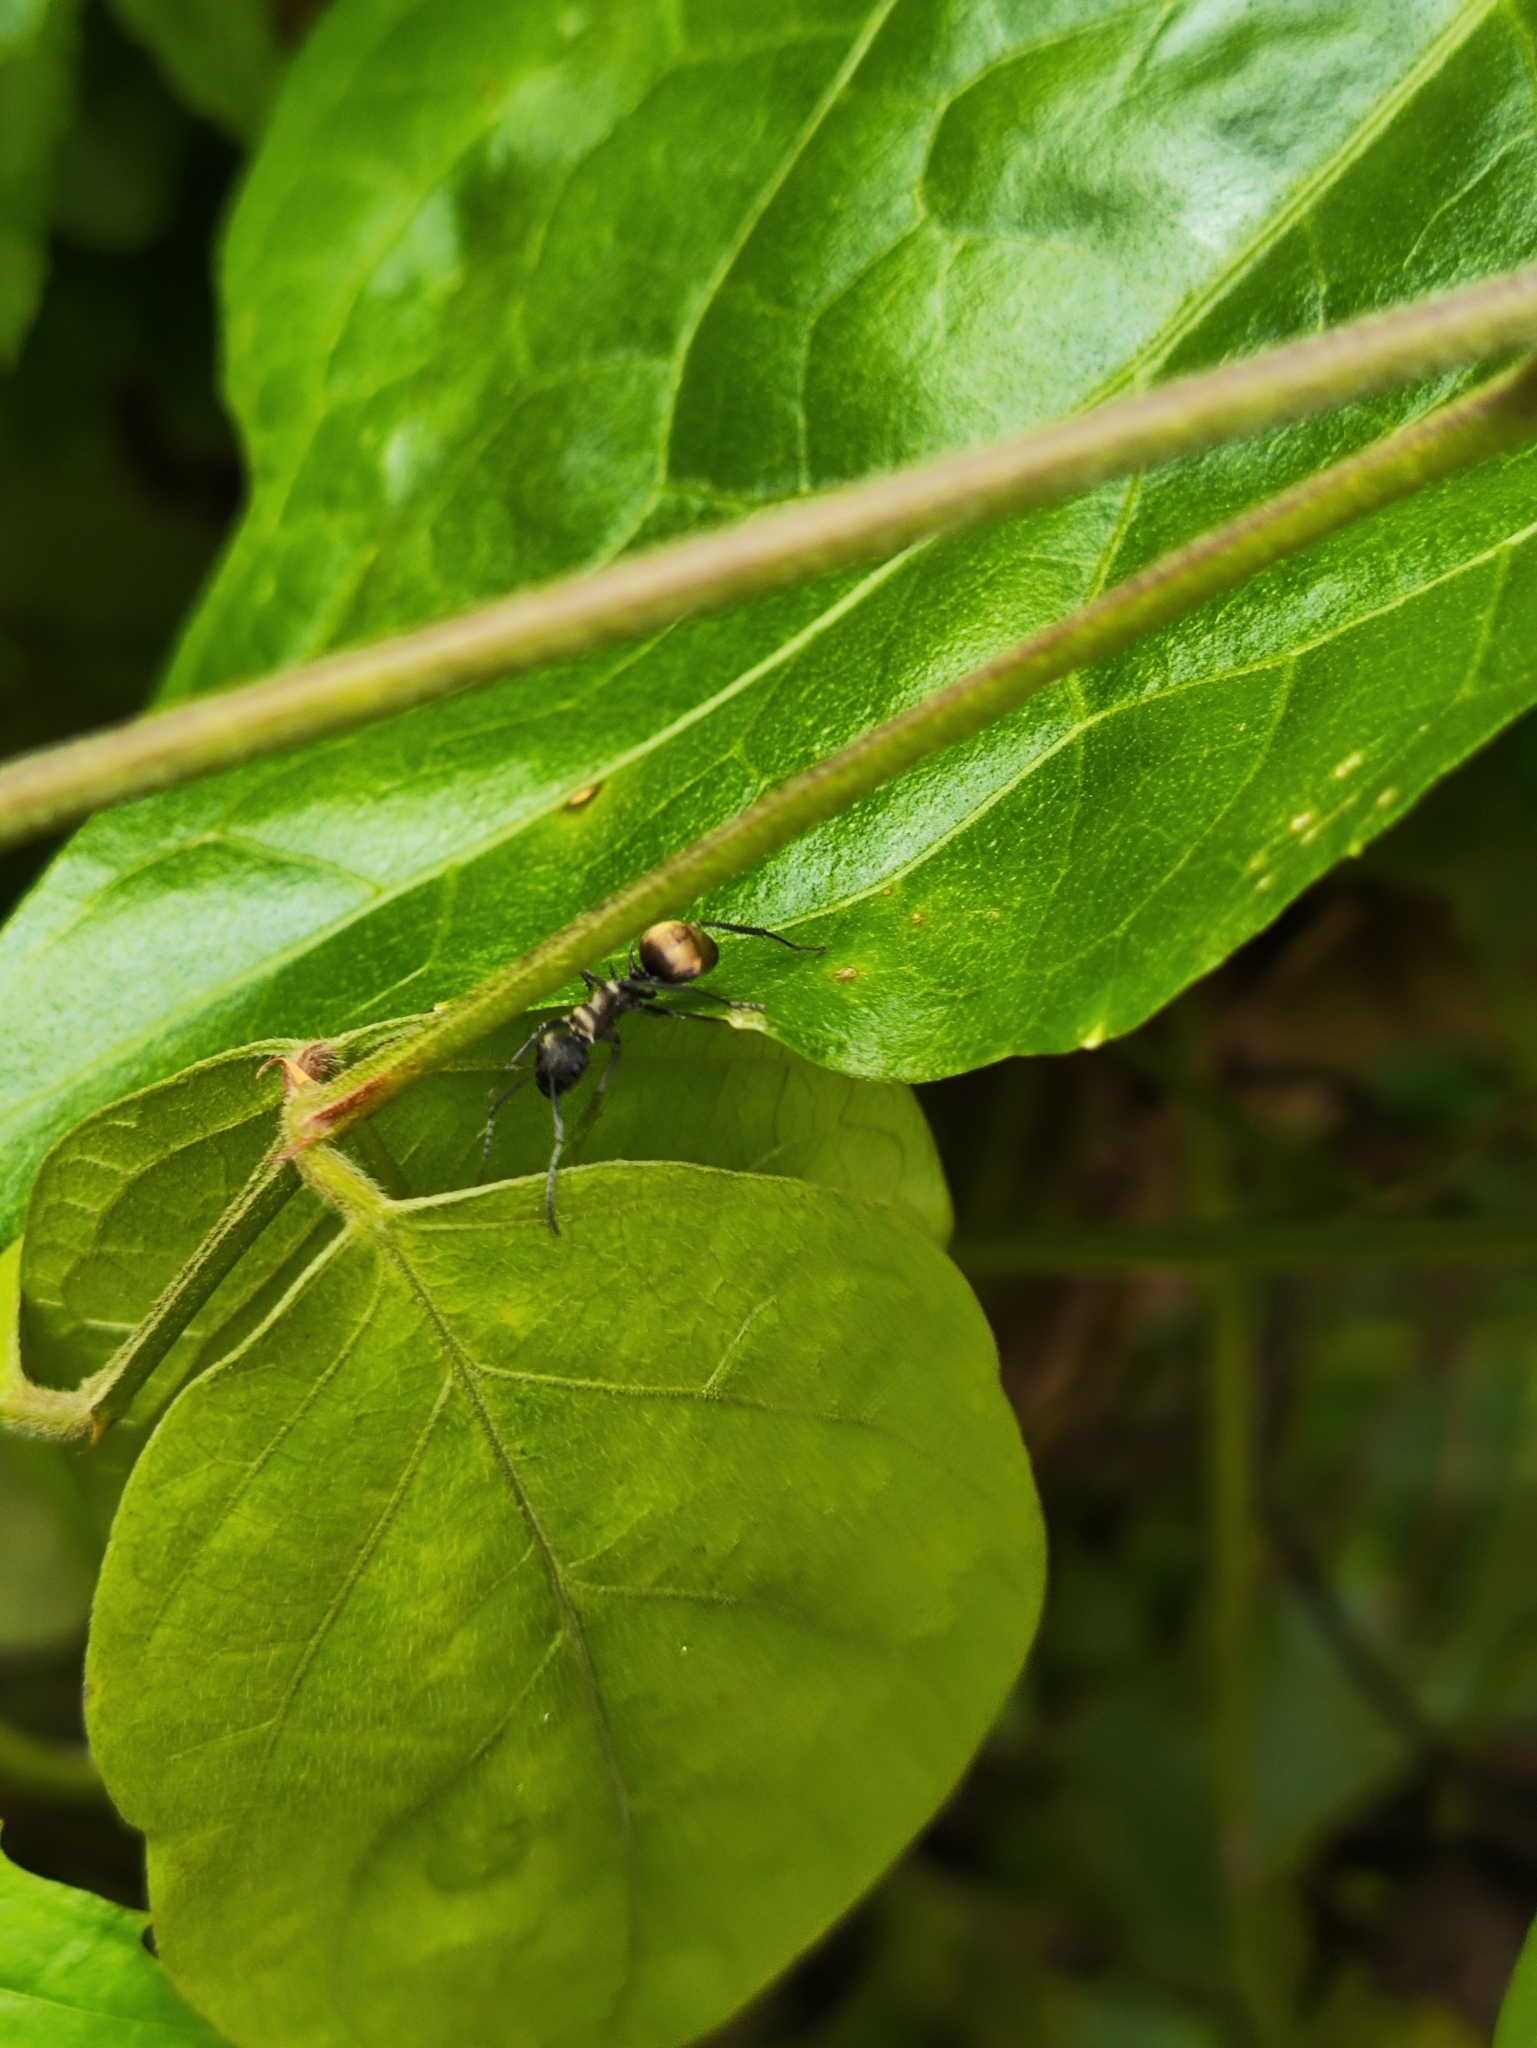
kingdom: Animalia
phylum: Arthropoda
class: Insecta
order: Hymenoptera
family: Formicidae
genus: Polyrhachis
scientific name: Polyrhachis dives
